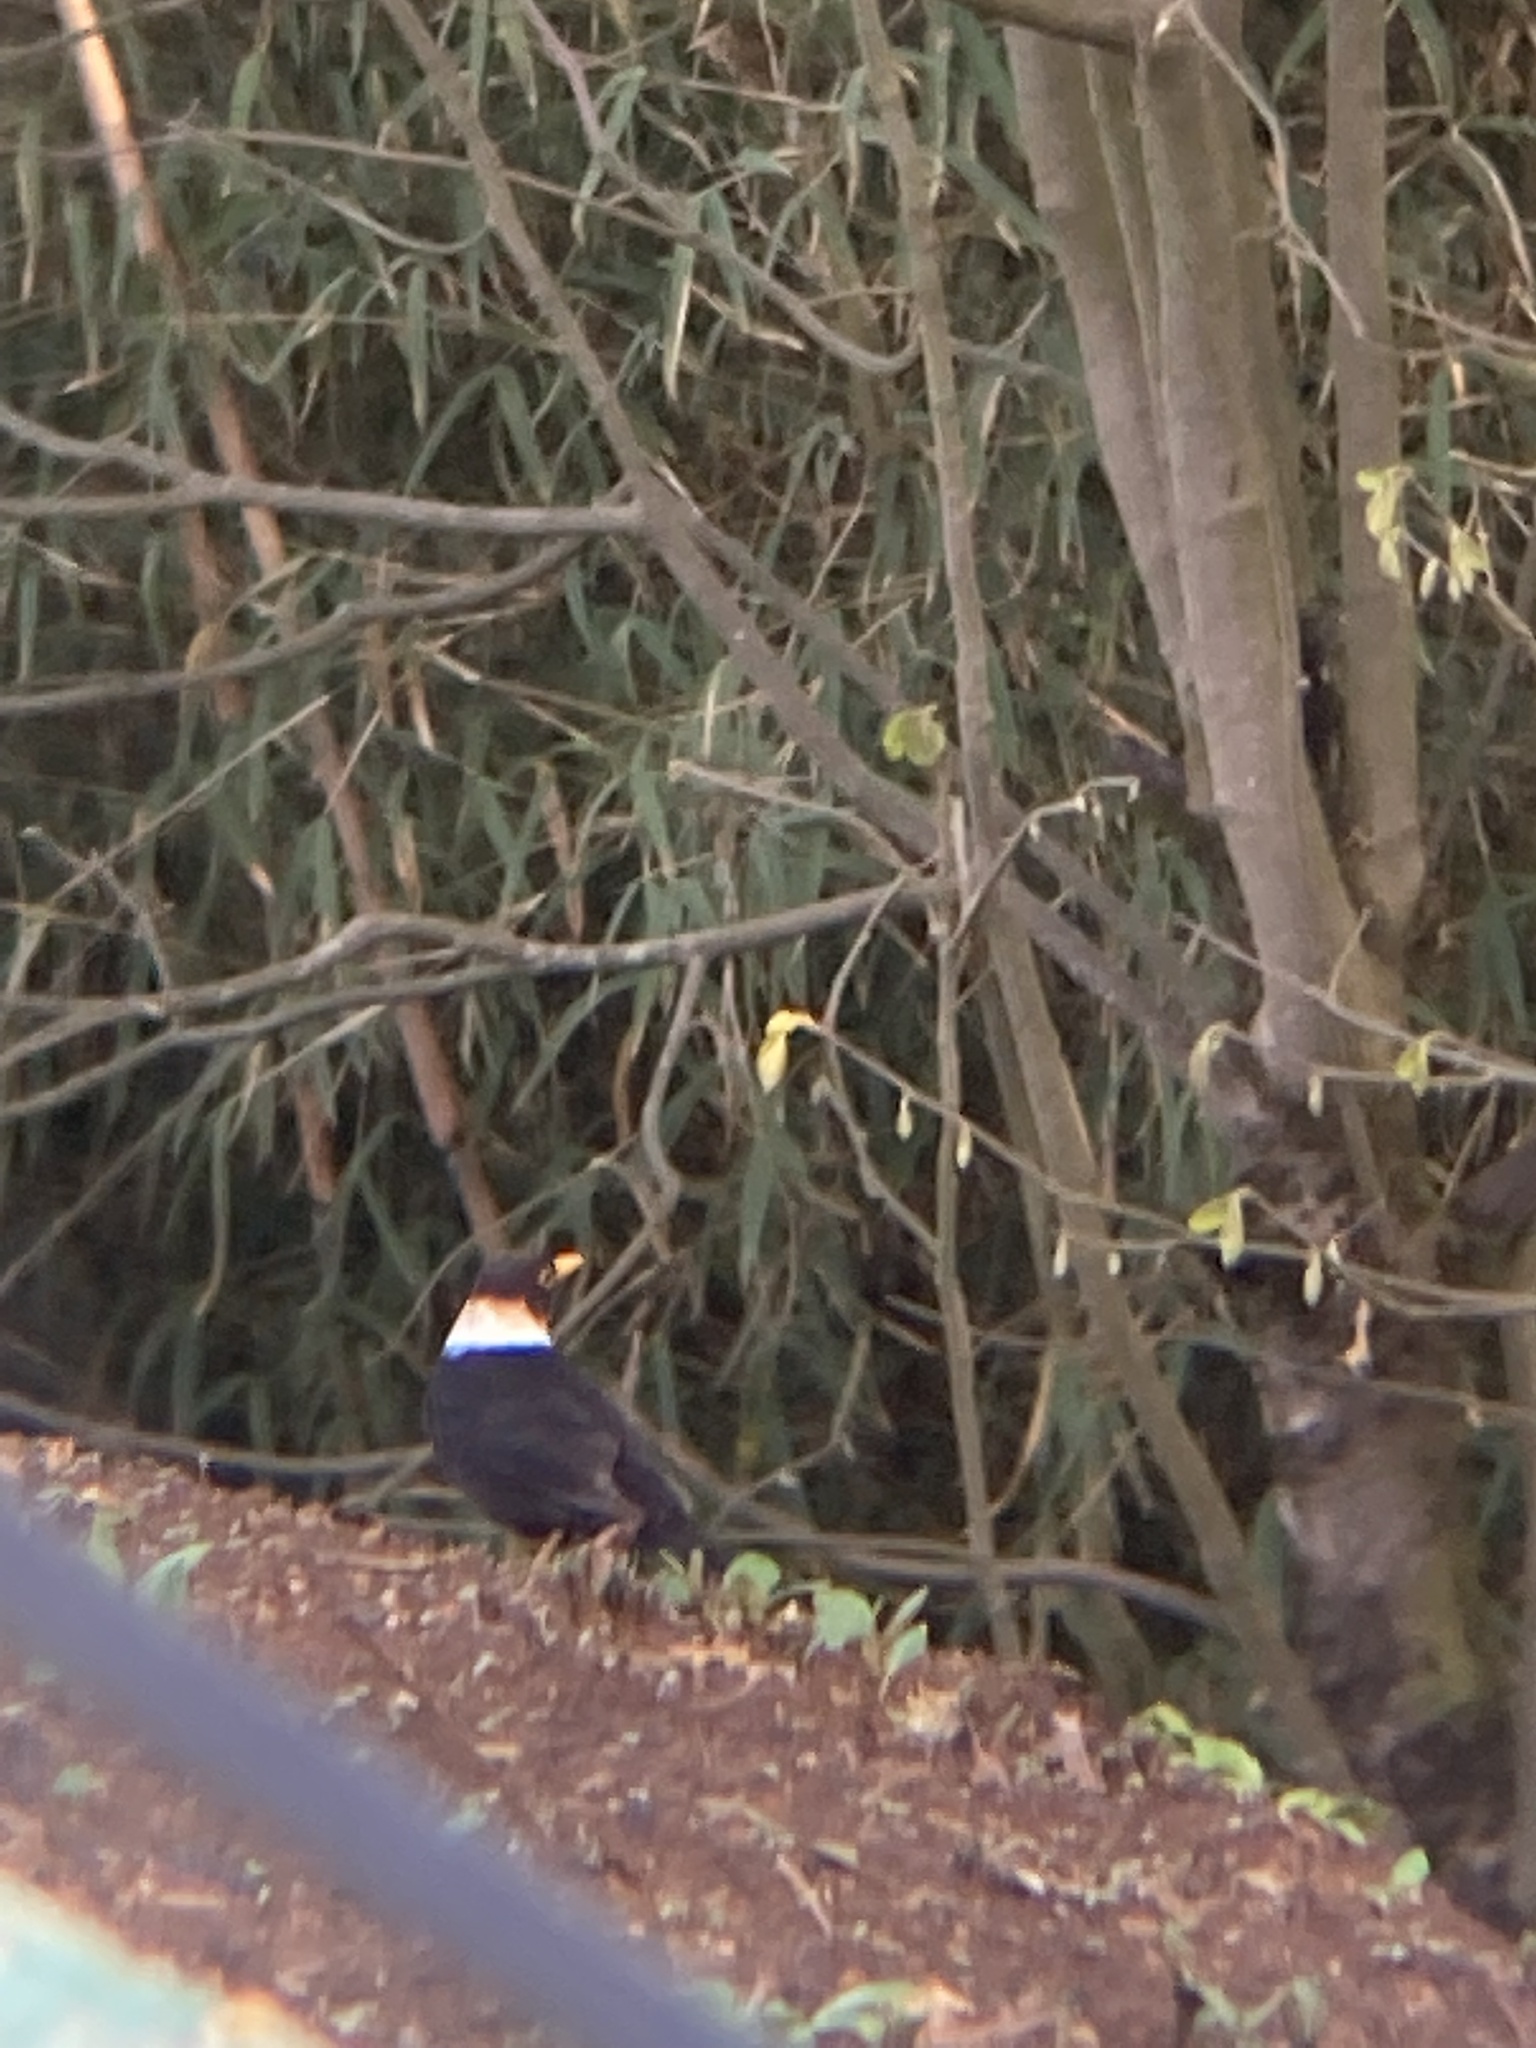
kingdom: Animalia
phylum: Chordata
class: Aves
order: Passeriformes
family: Turdidae
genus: Turdus
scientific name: Turdus albocinctus
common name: White-collared blackbird
